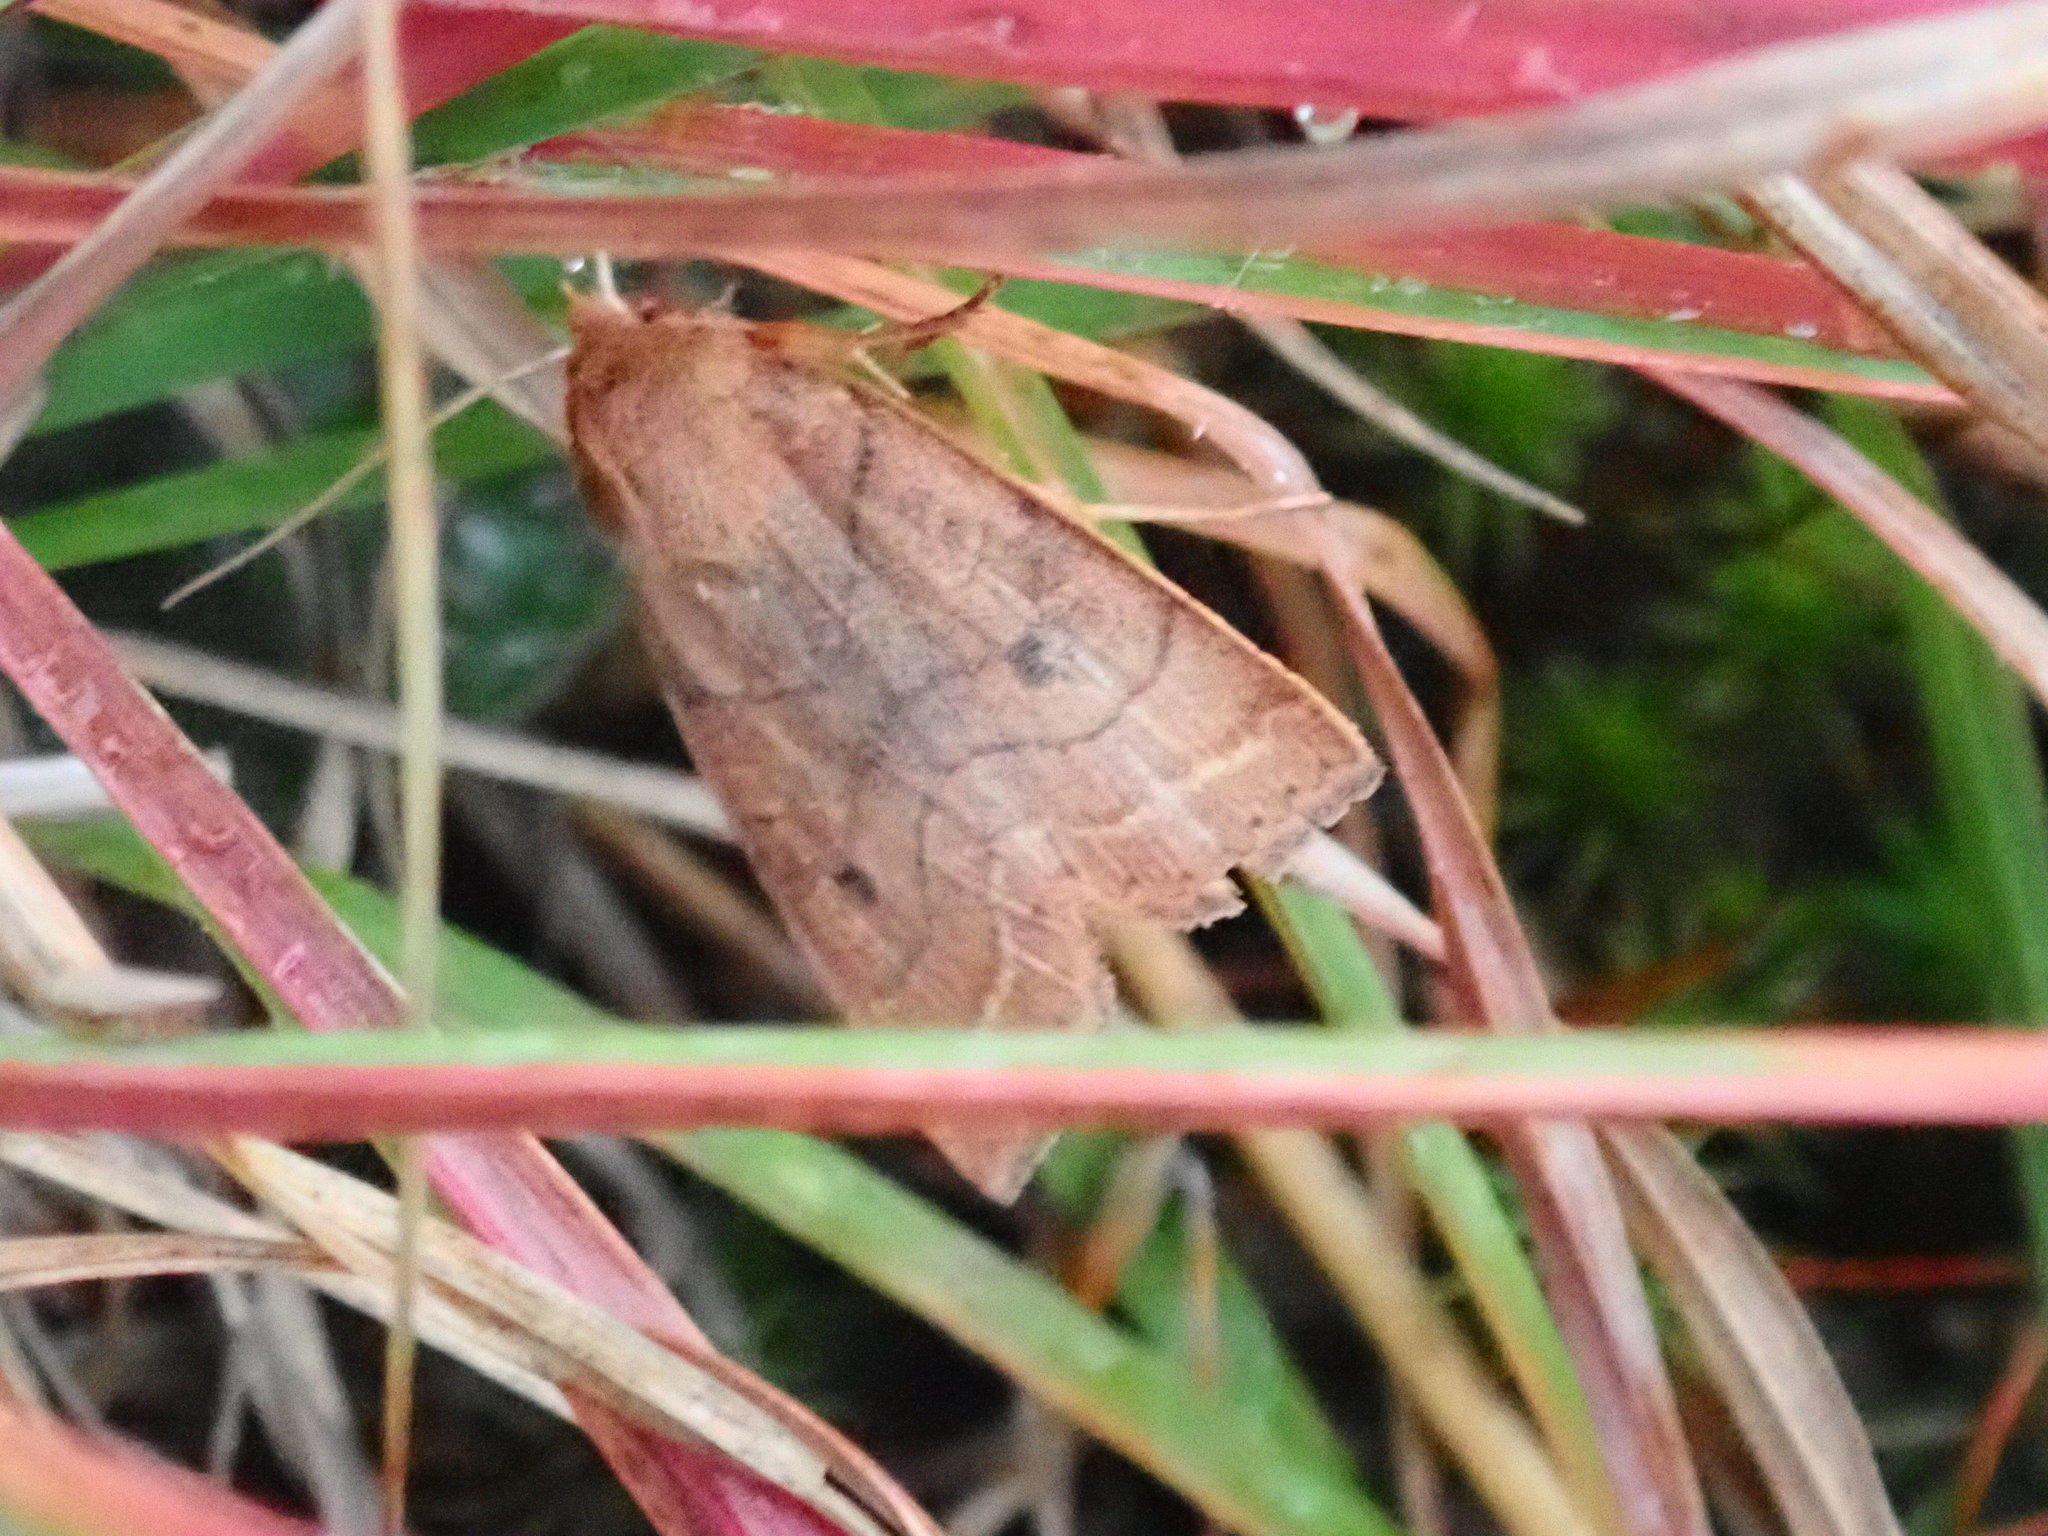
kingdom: Animalia
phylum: Arthropoda
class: Insecta
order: Lepidoptera
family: Noctuidae
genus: Epiglaea
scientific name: Epiglaea apiata
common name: Pointed sallow
